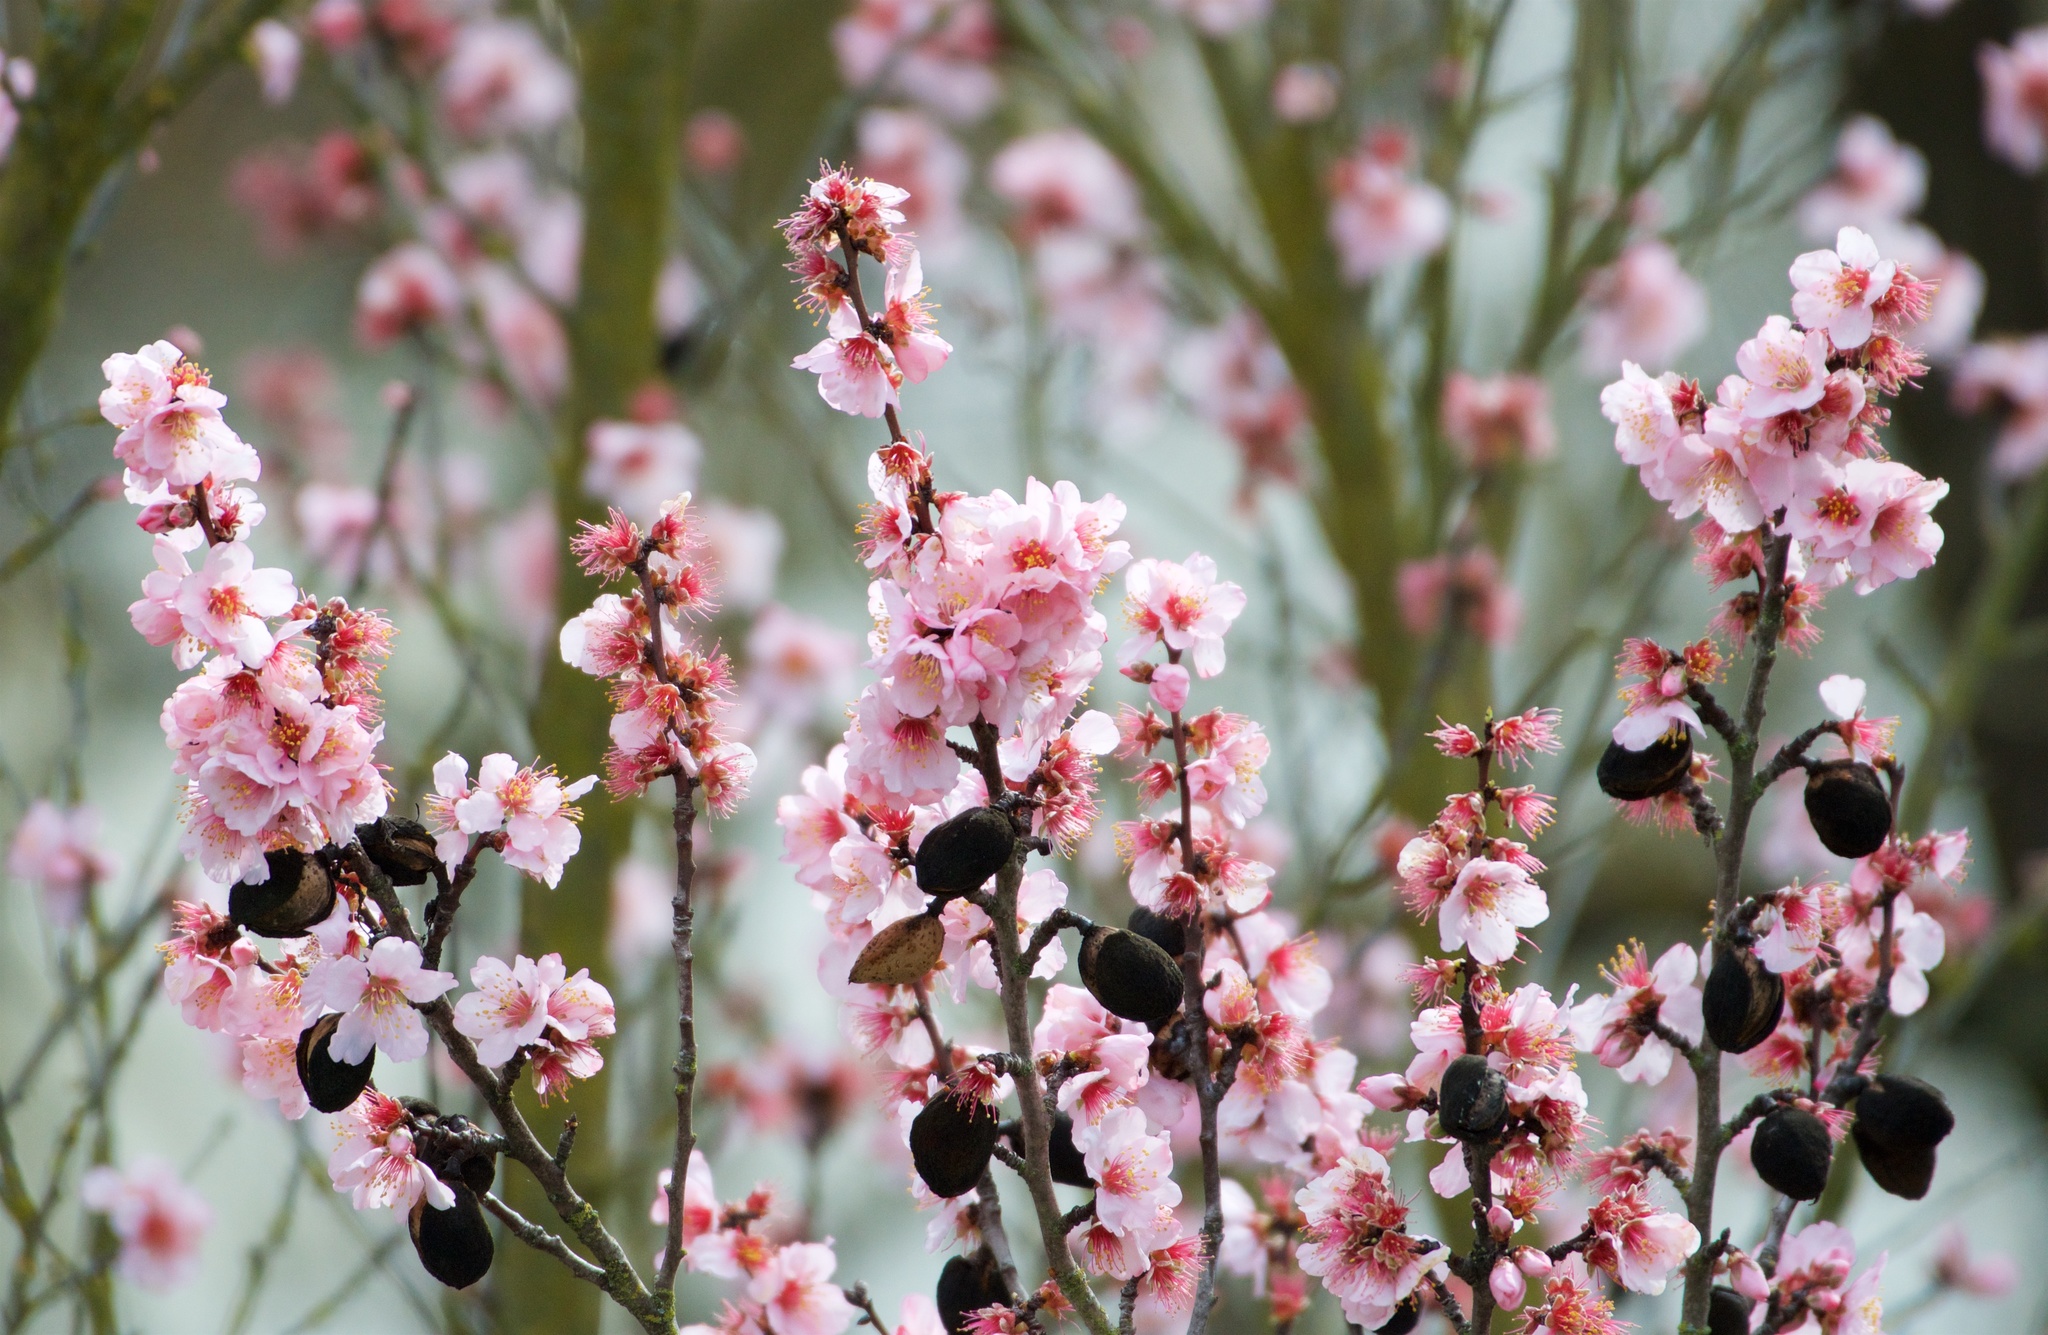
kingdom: Plantae
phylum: Tracheophyta
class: Magnoliopsida
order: Rosales
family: Rosaceae
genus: Prunus
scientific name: Prunus amygdalus
